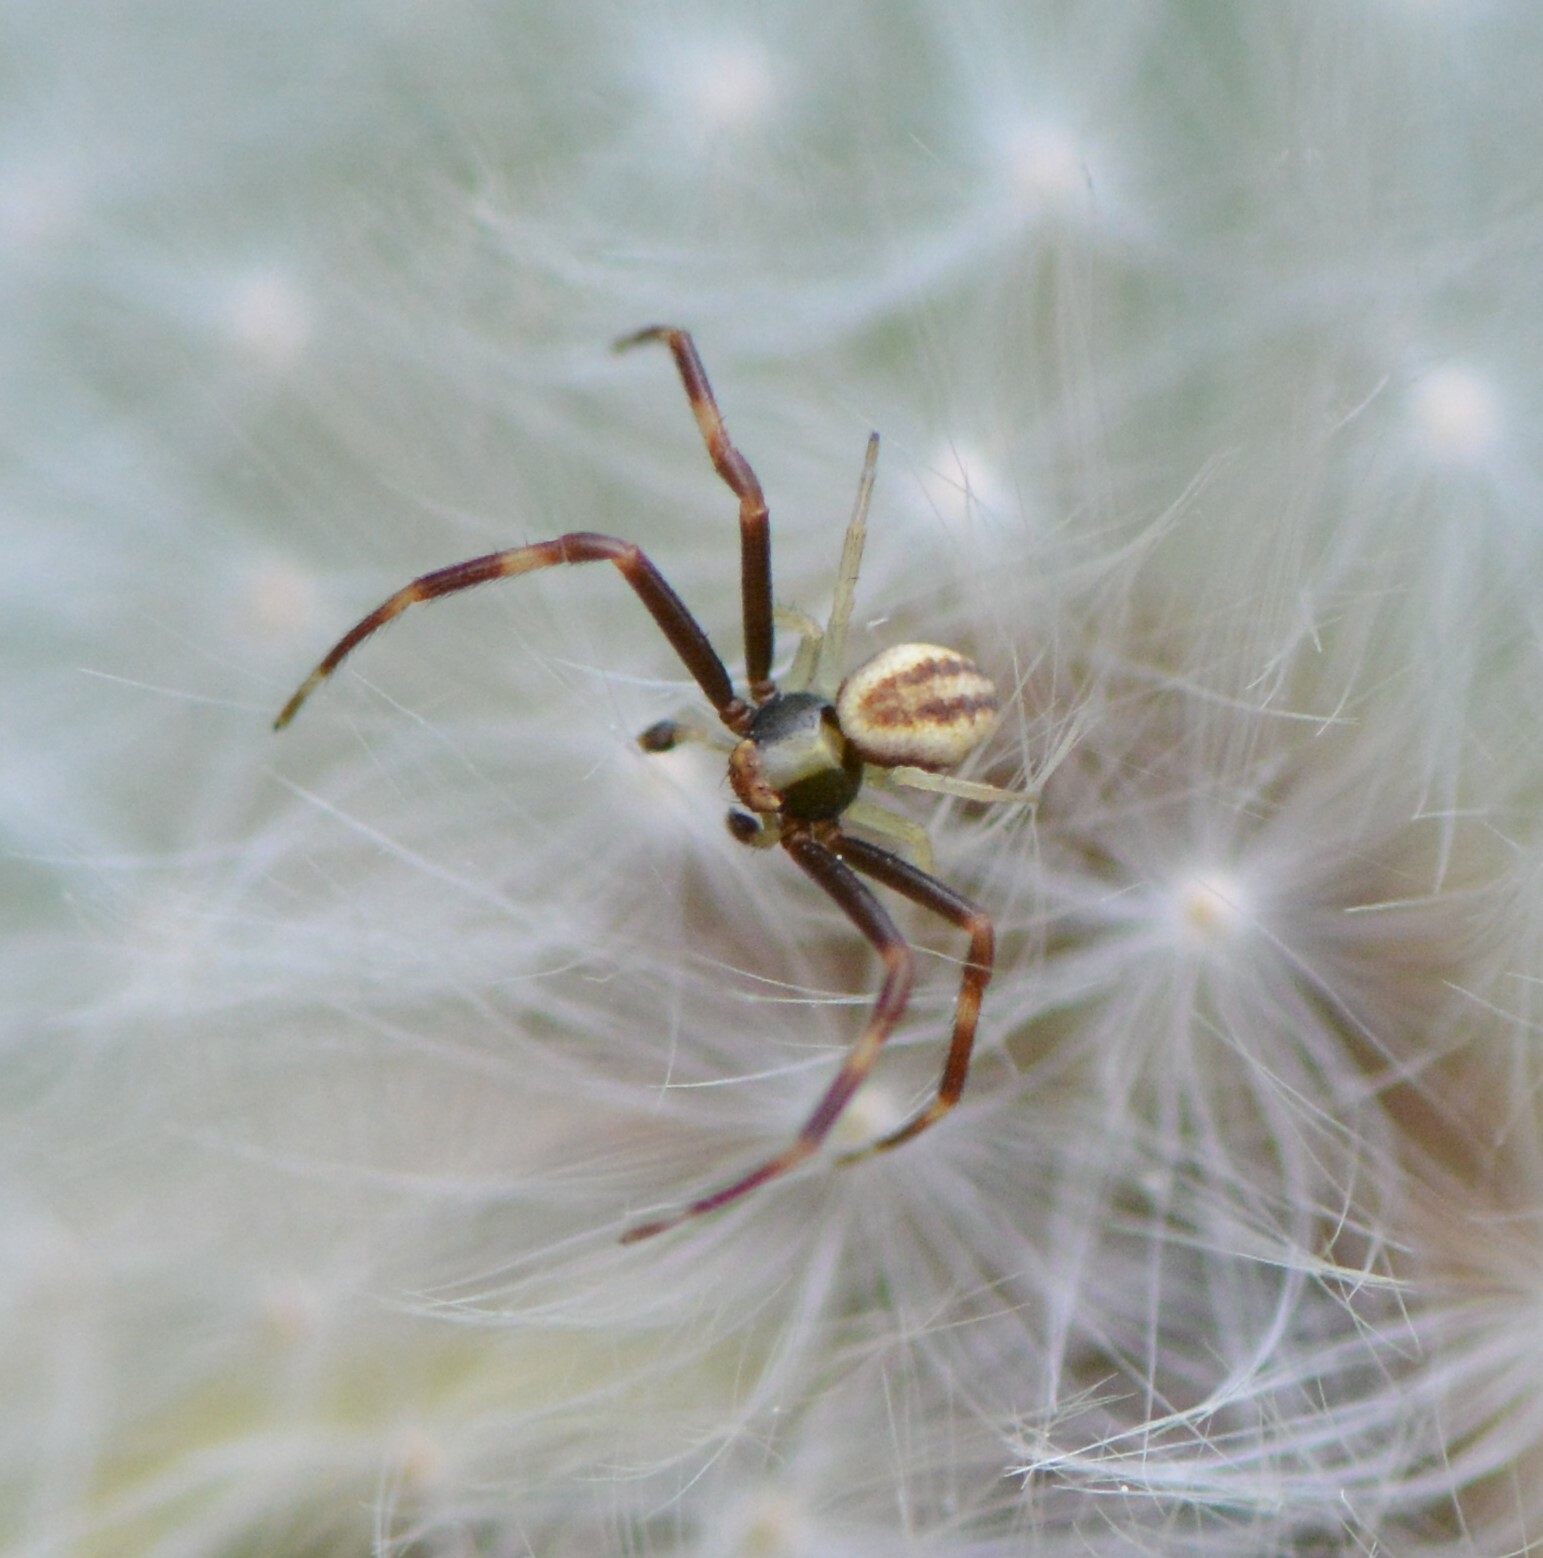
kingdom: Animalia
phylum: Arthropoda
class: Arachnida
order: Araneae
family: Thomisidae
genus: Misumena
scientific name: Misumena vatia
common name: Goldenrod crab spider
